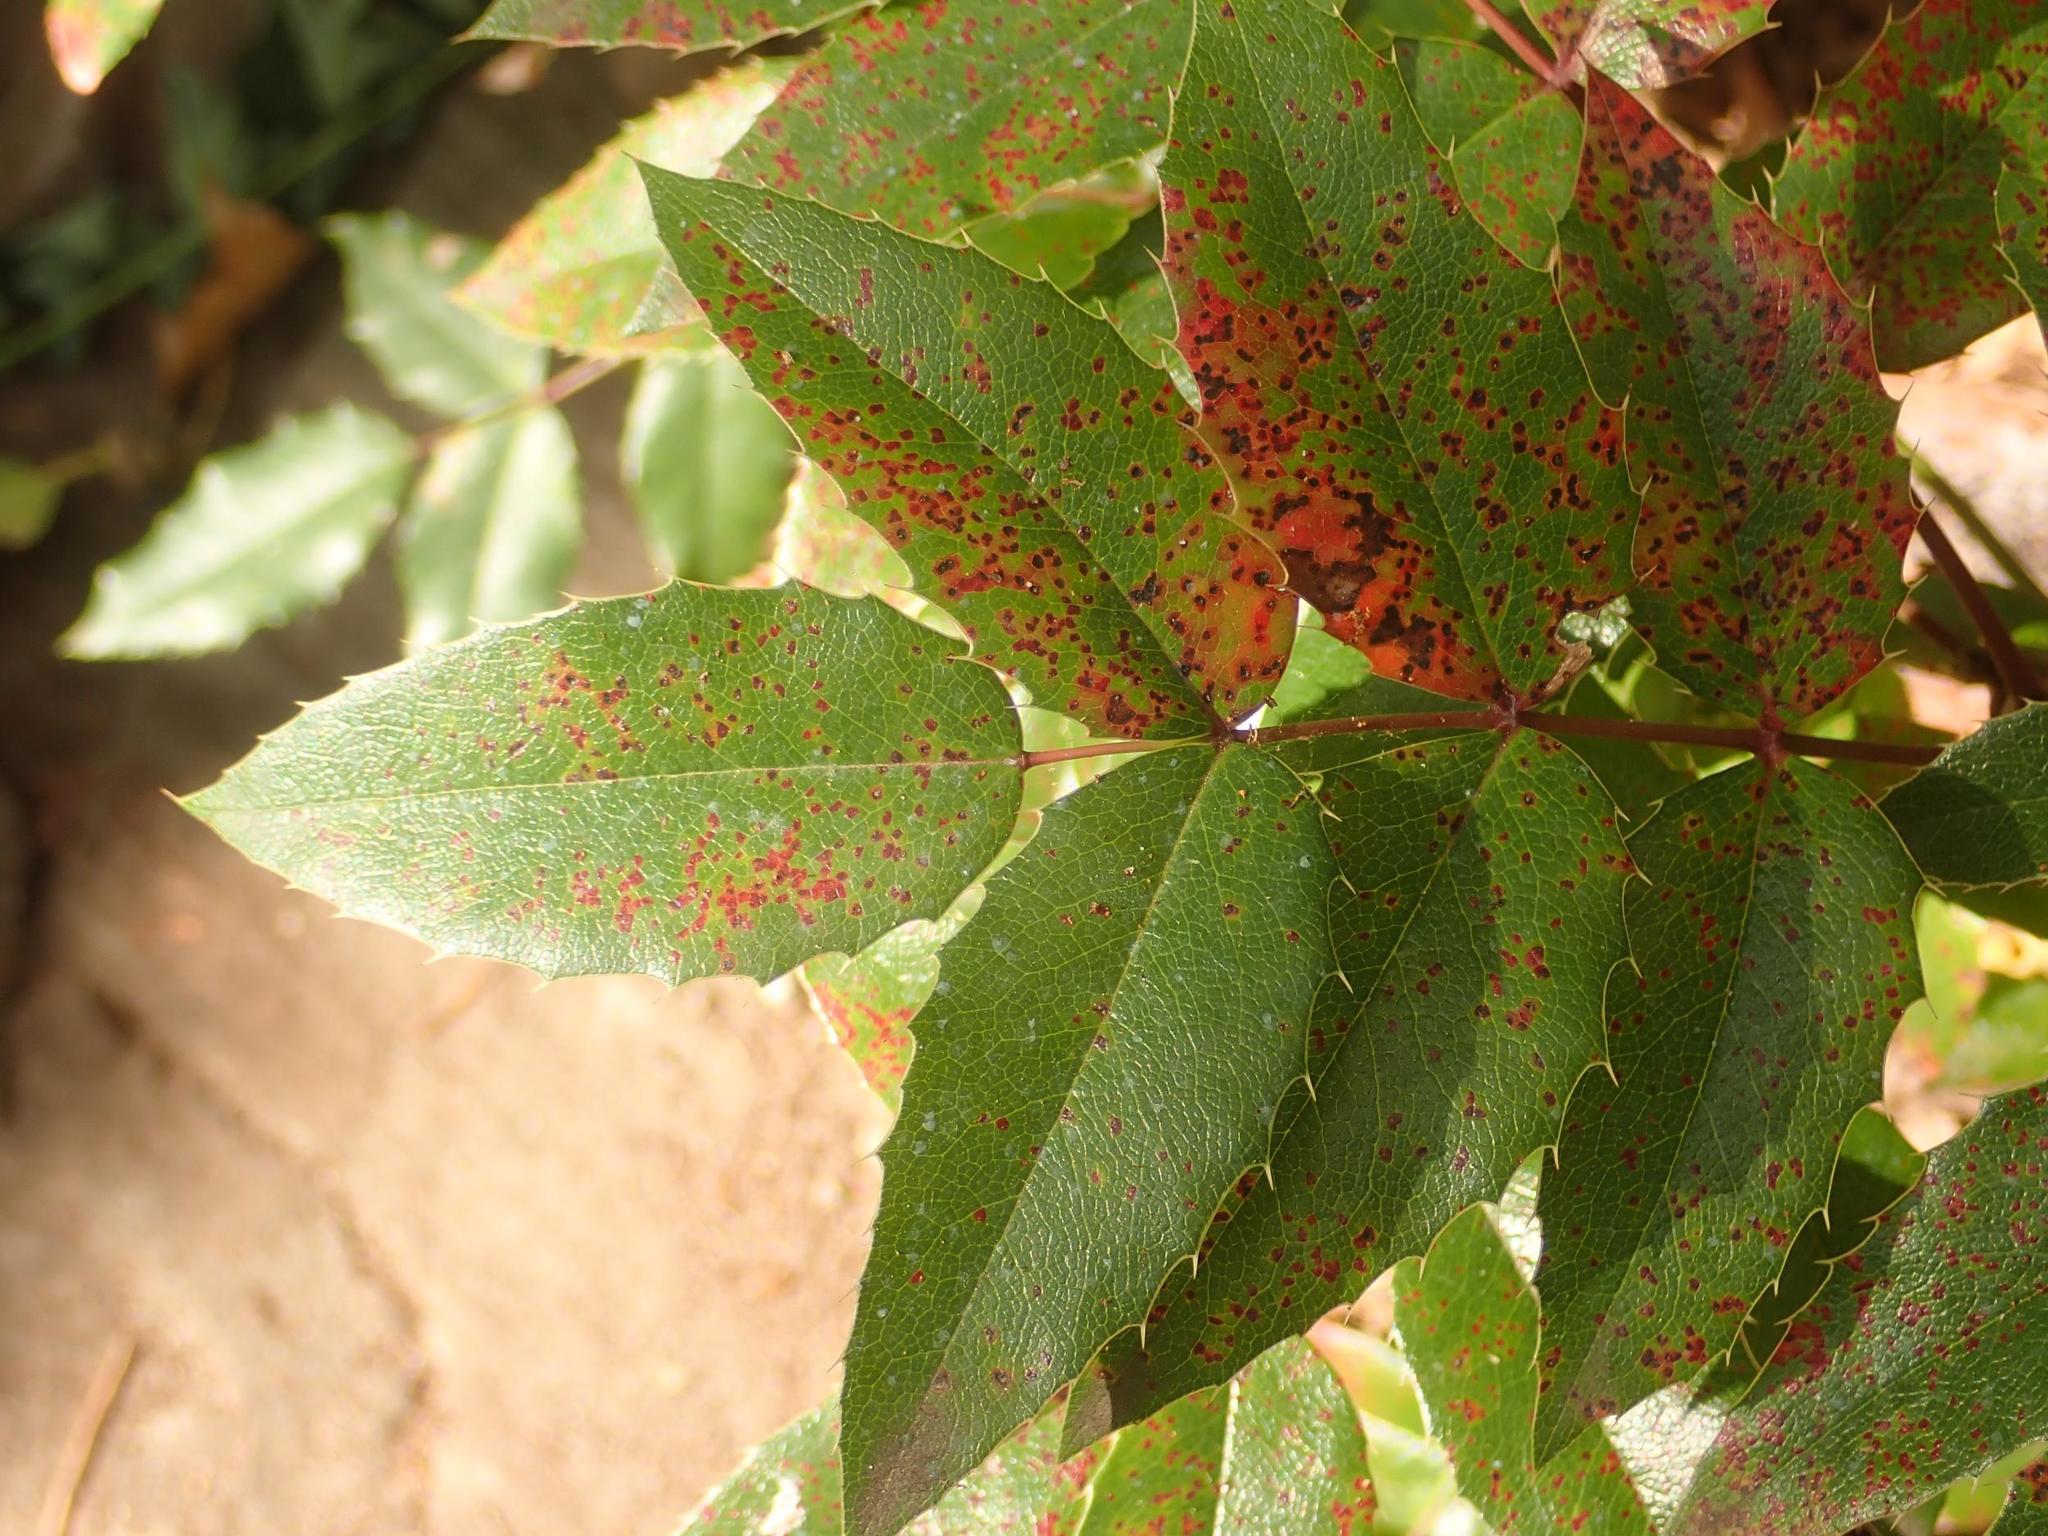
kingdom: Plantae
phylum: Tracheophyta
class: Magnoliopsida
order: Ranunculales
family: Berberidaceae
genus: Mahonia
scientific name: Mahonia aquifolium
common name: Oregon-grape
